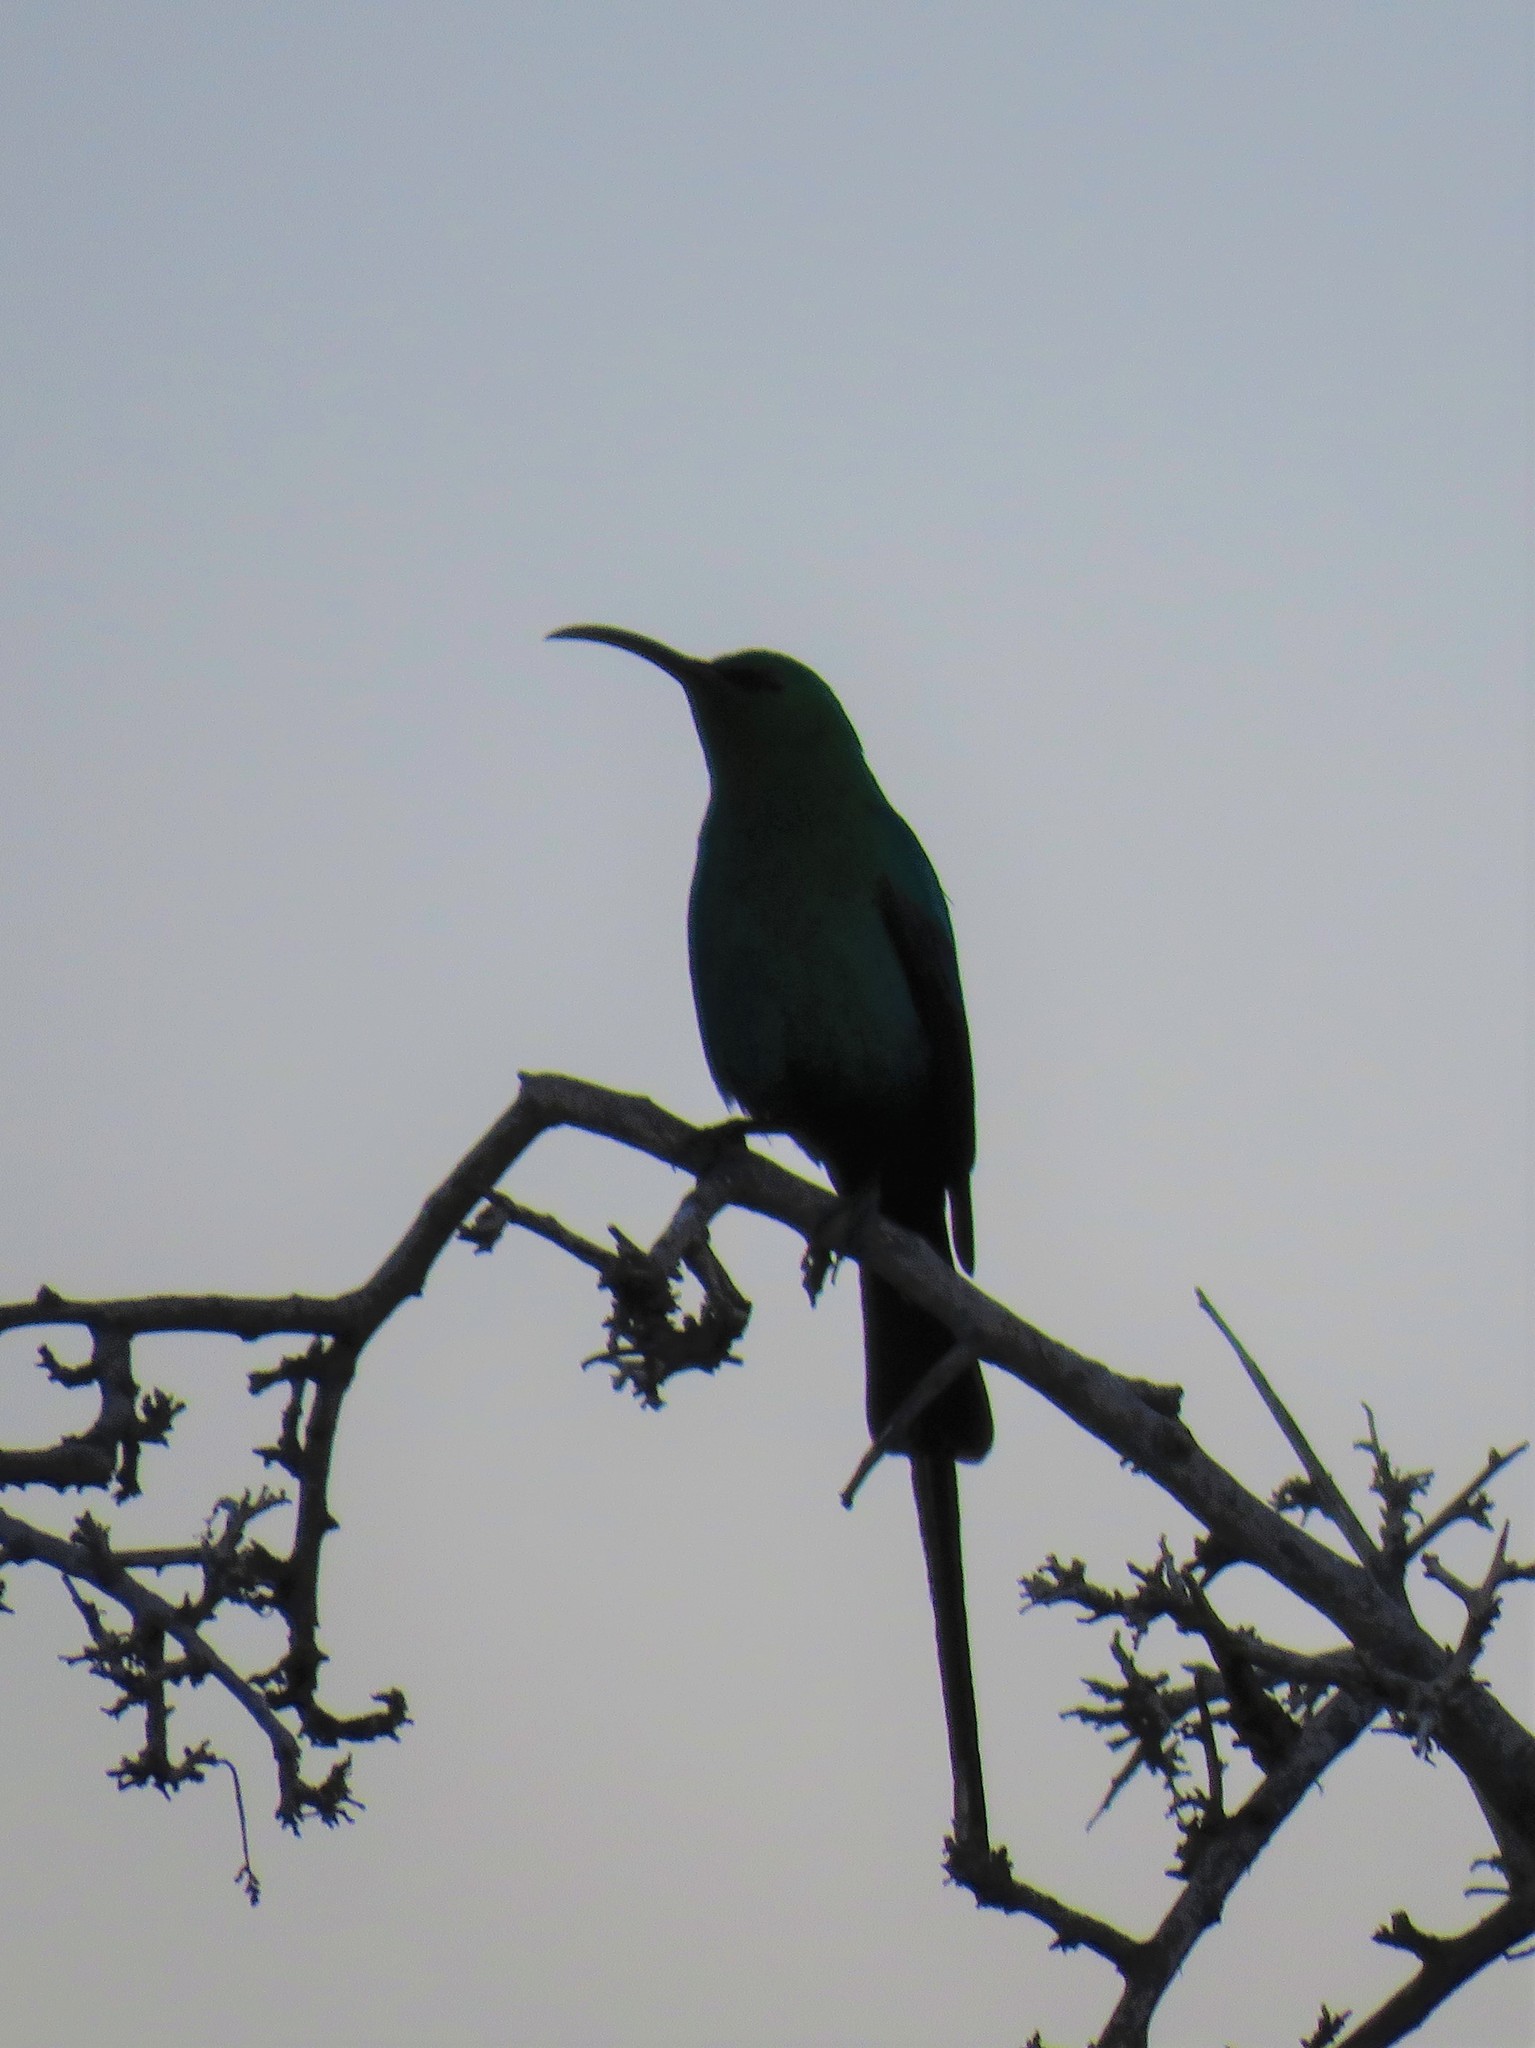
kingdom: Animalia
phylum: Chordata
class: Aves
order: Passeriformes
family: Nectariniidae
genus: Nectarinia
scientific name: Nectarinia famosa
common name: Malachite sunbird
